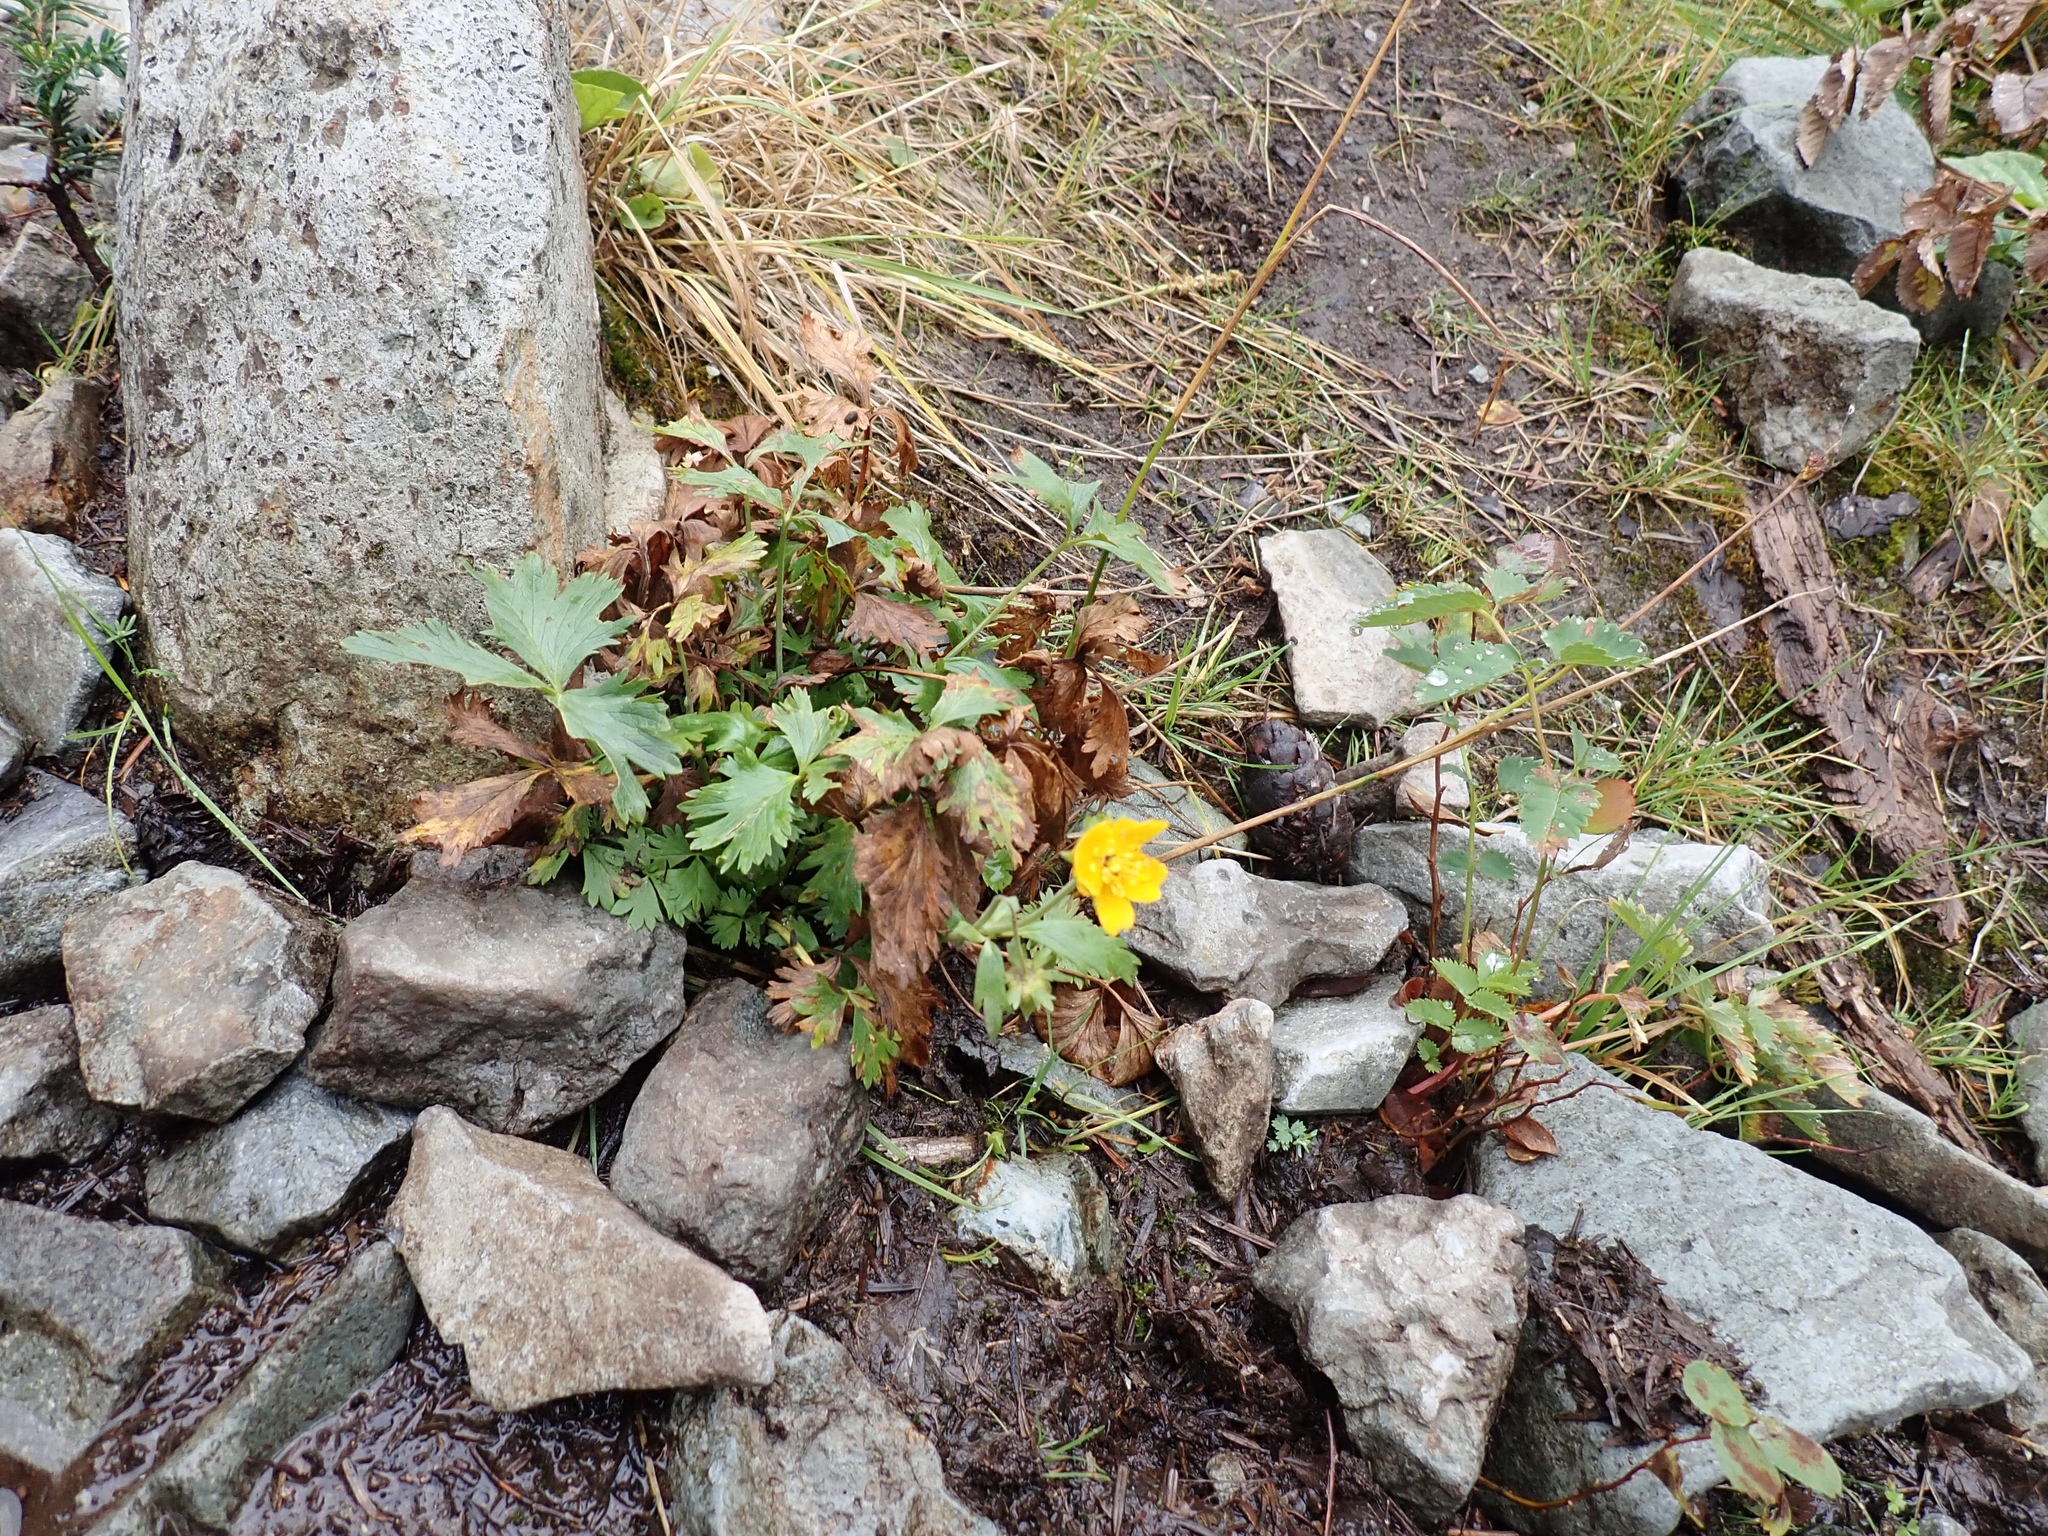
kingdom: Plantae
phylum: Tracheophyta
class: Magnoliopsida
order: Rosales
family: Rosaceae
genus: Potentilla
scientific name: Potentilla flabellifolia
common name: Mount rainier cinquefoil
